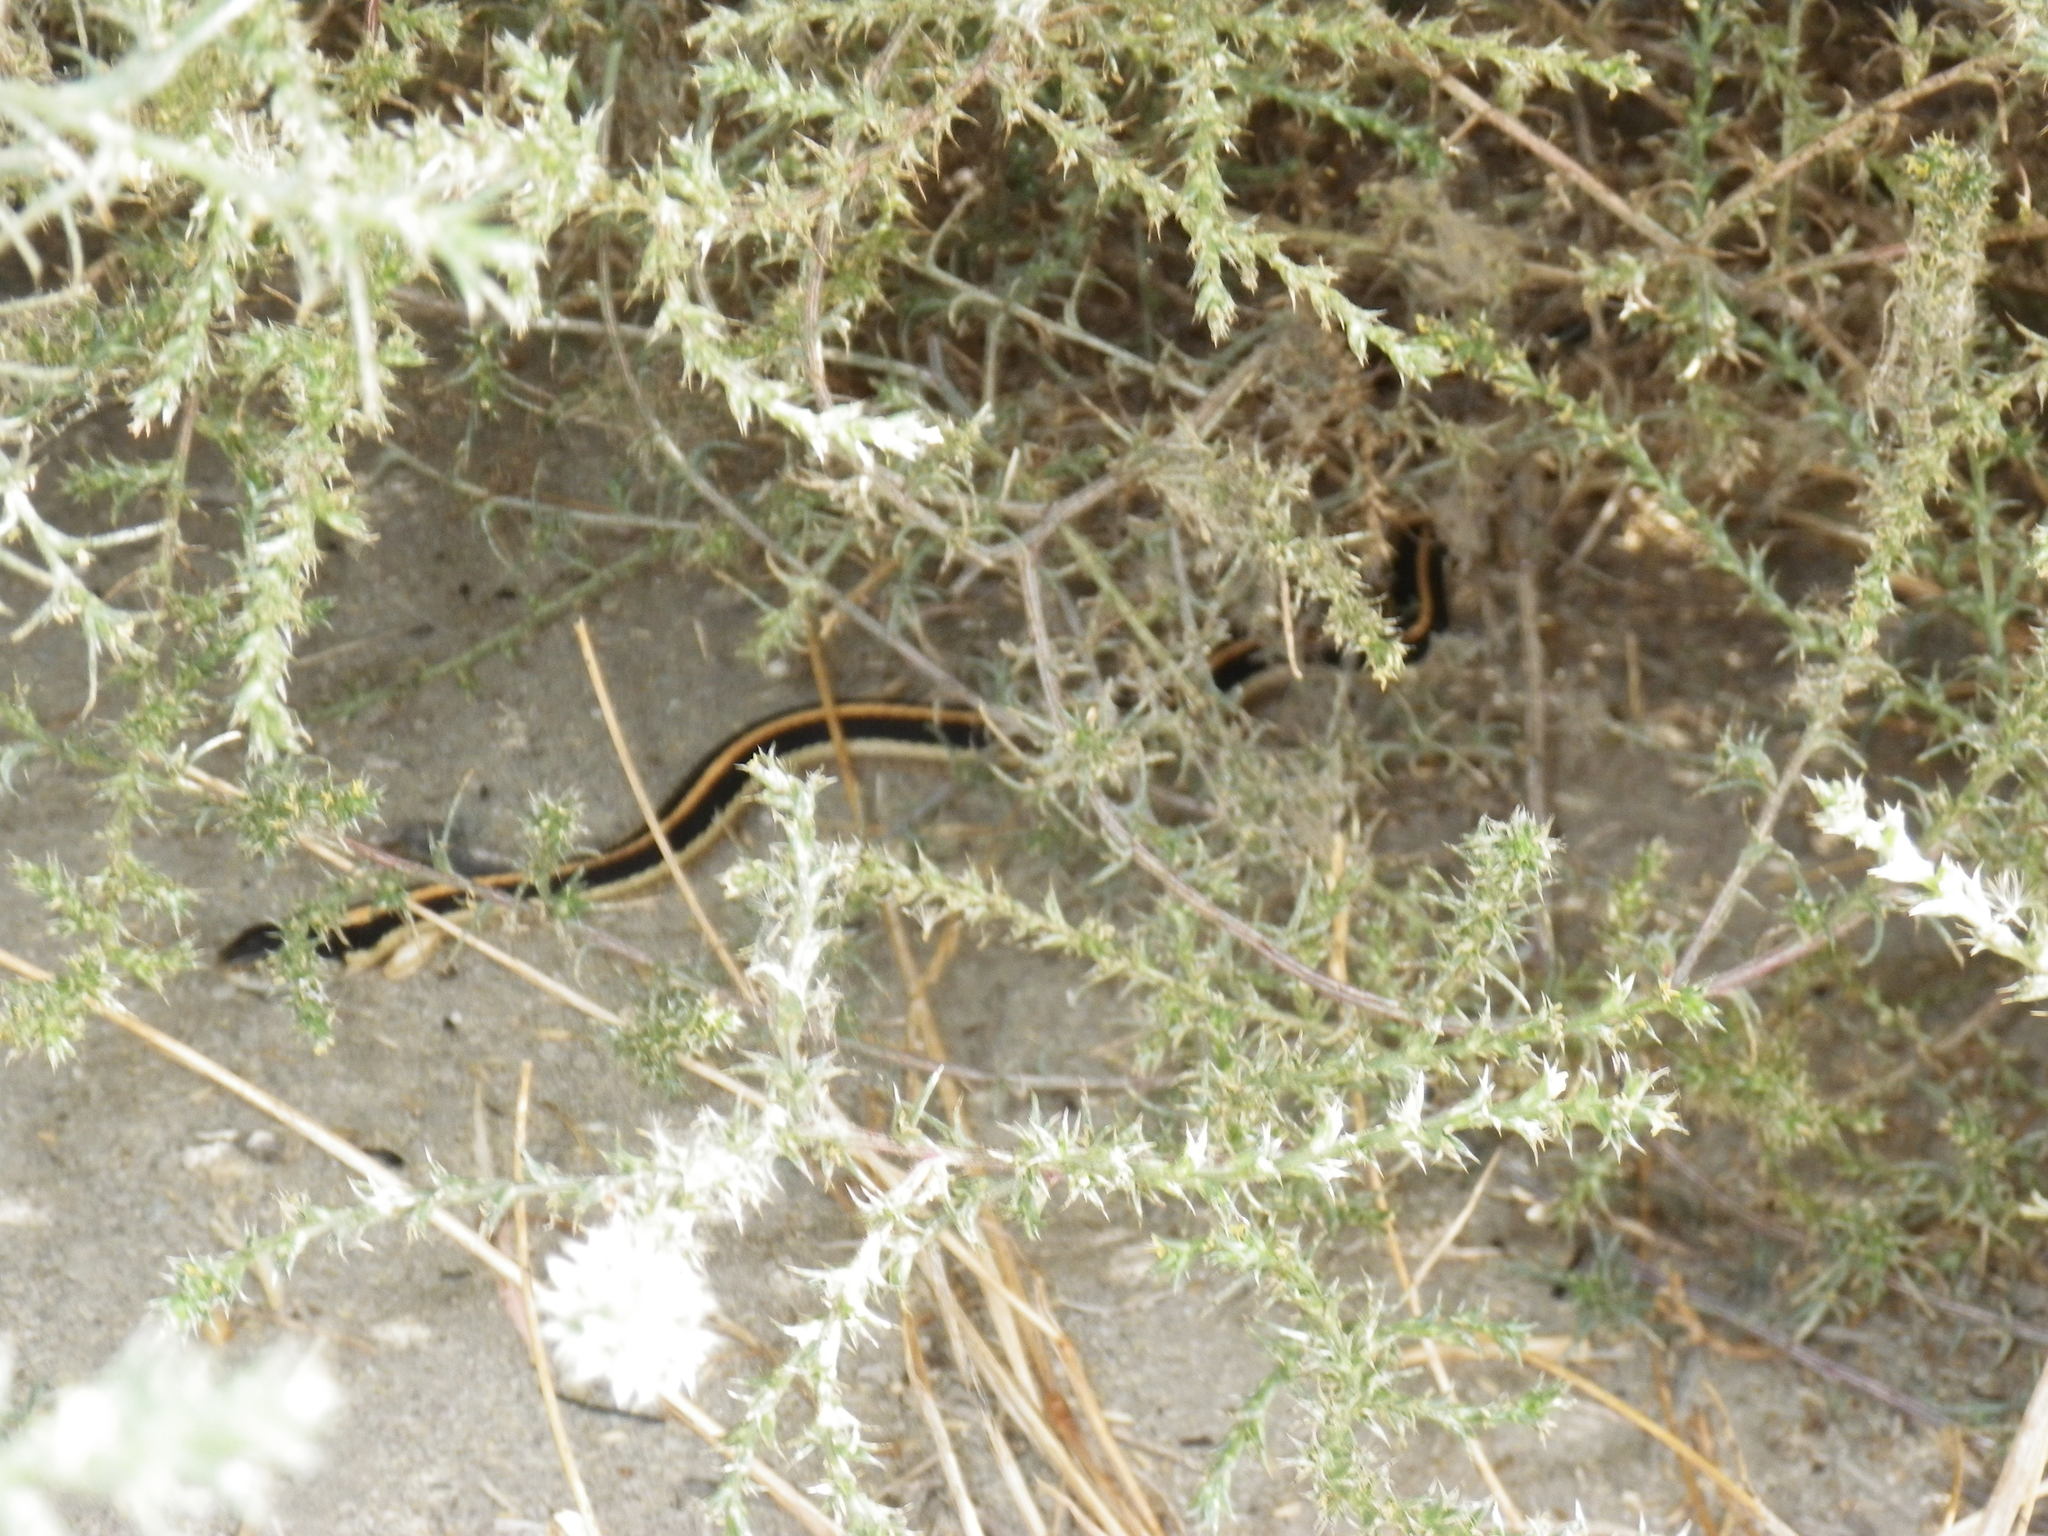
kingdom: Animalia
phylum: Chordata
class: Squamata
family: Colubridae
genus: Thamnophis
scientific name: Thamnophis elegans
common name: Western terrestrial garter snake
